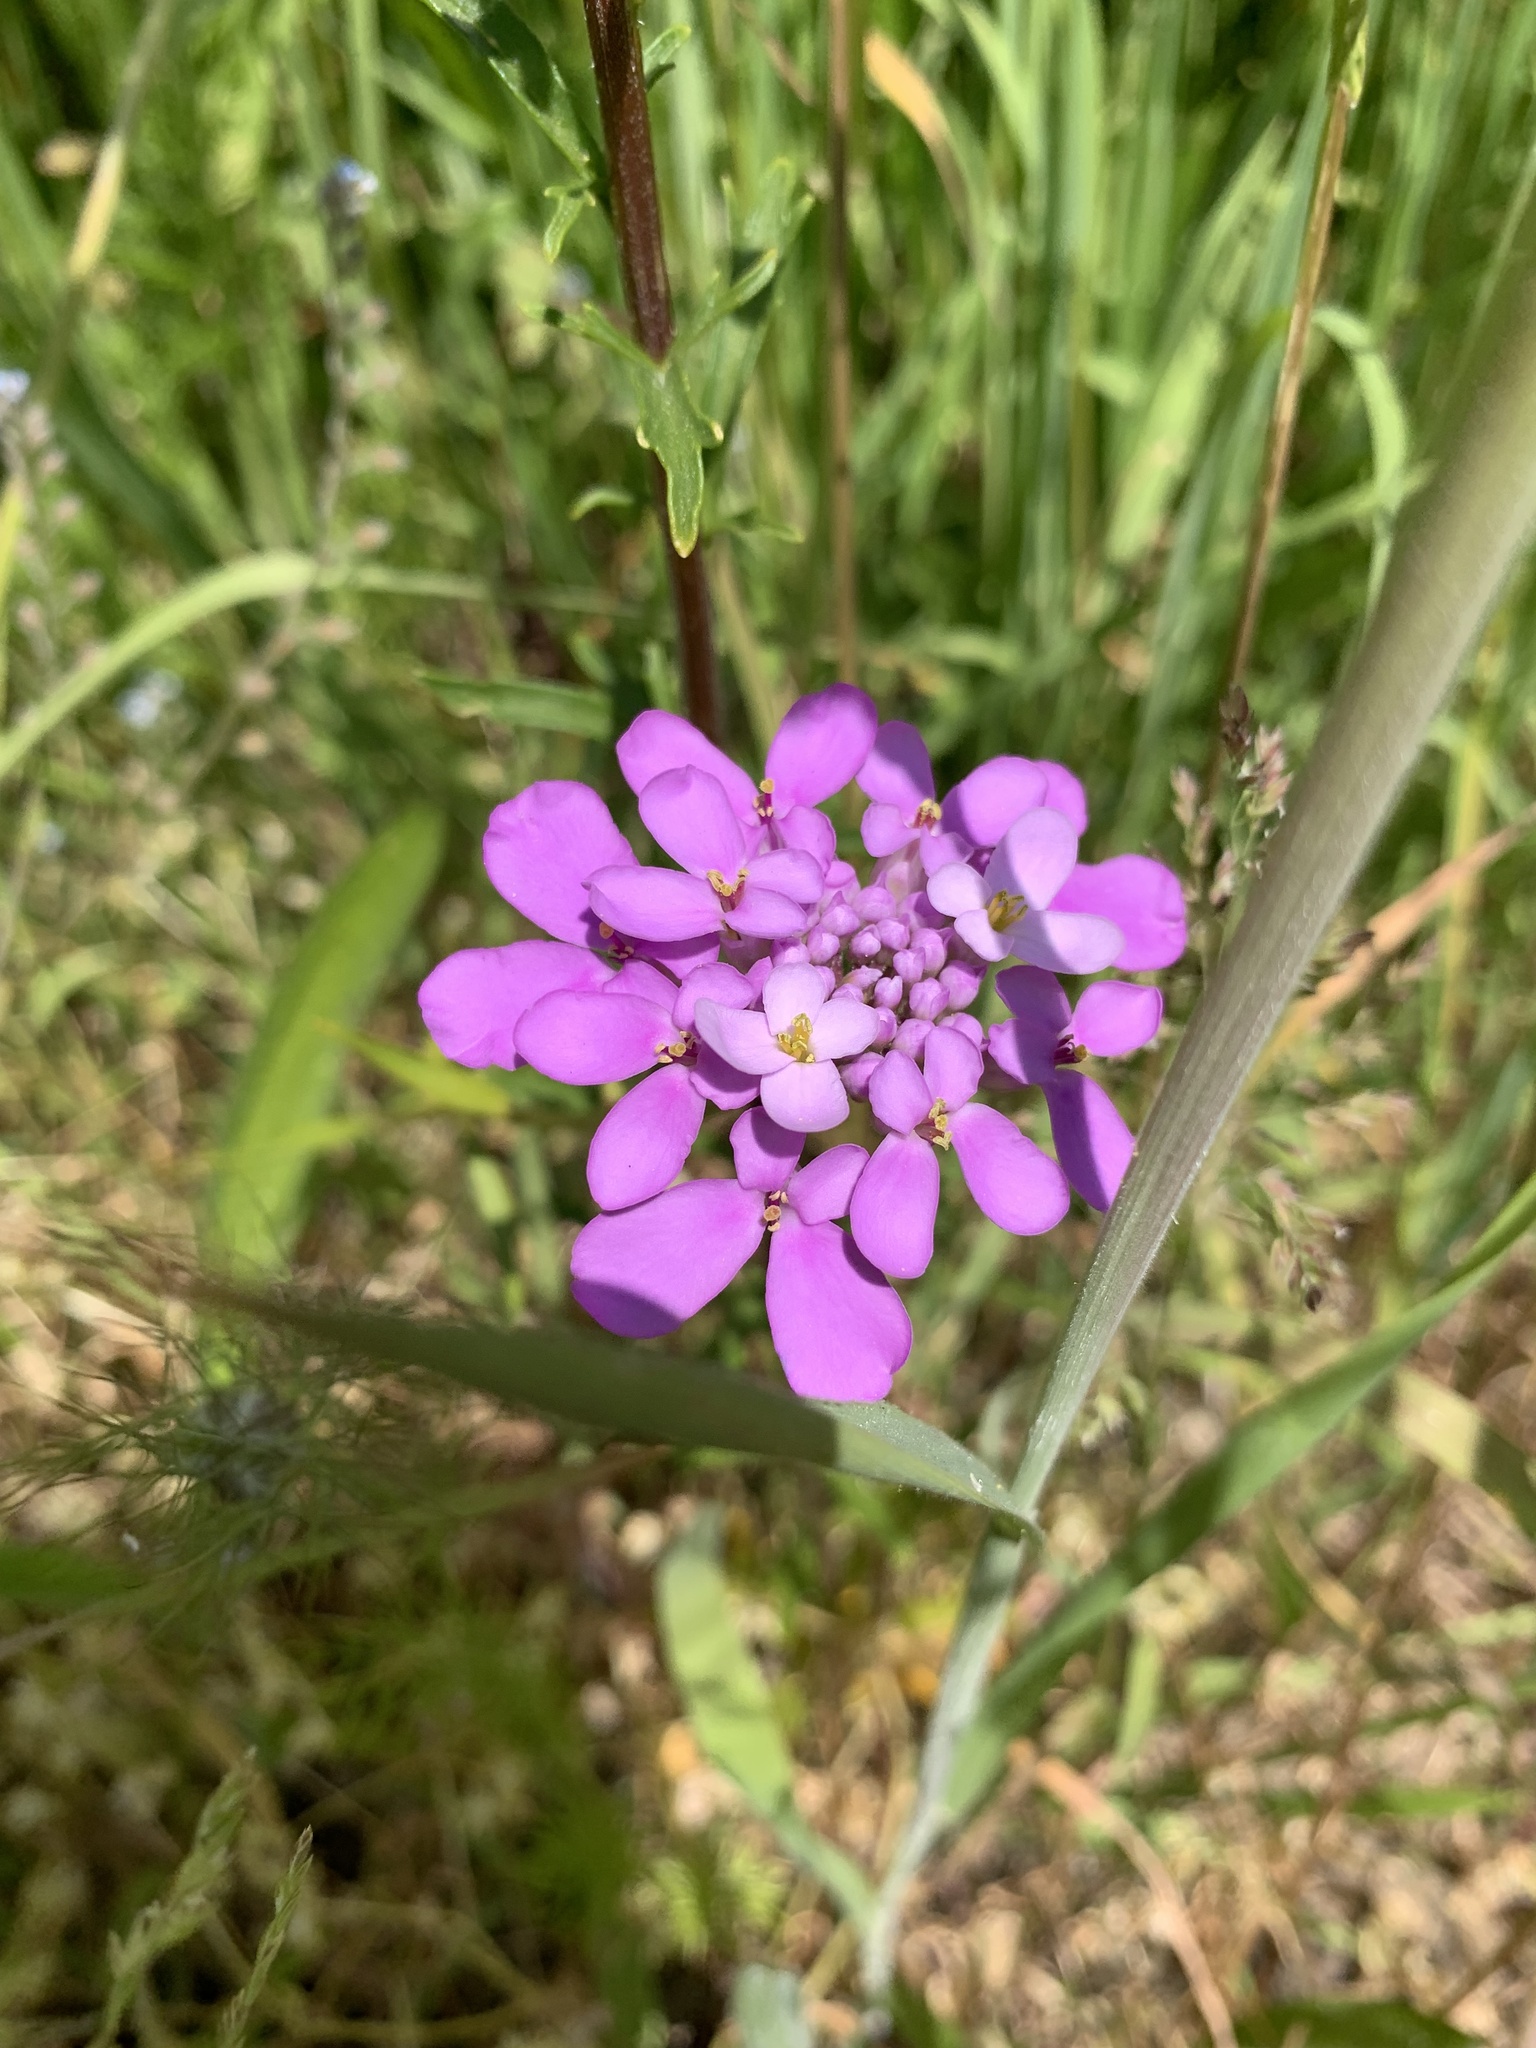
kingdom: Plantae
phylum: Tracheophyta
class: Magnoliopsida
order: Brassicales
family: Brassicaceae
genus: Iberis
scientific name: Iberis umbellata
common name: Globe candytuft
